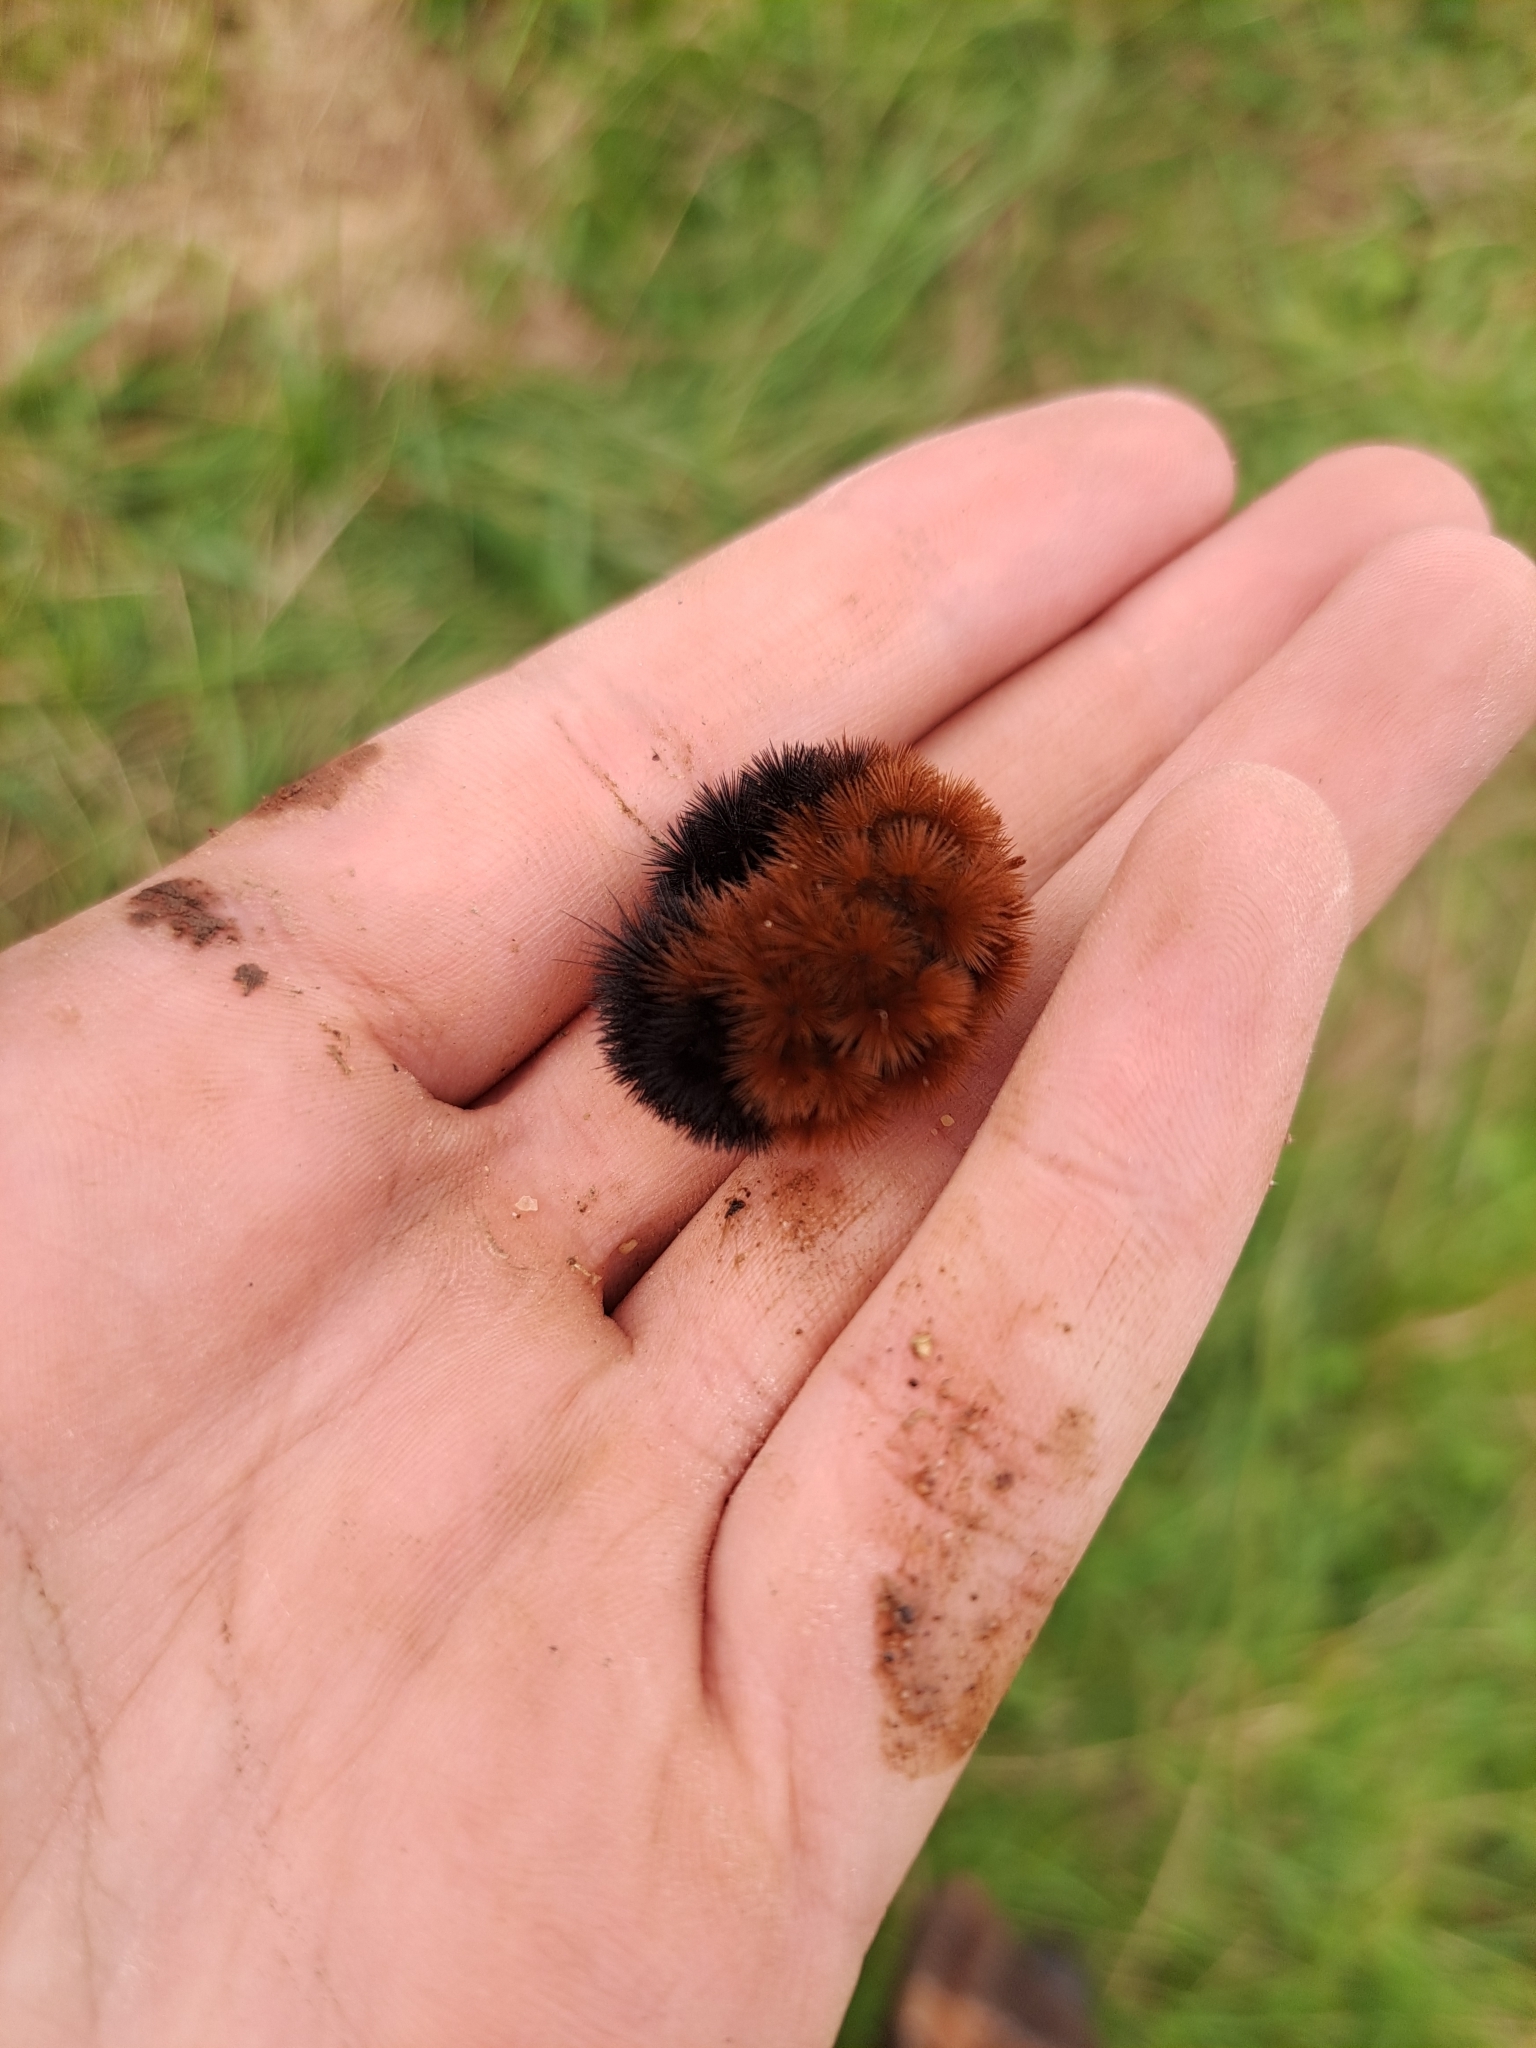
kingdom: Animalia
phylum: Arthropoda
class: Insecta
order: Lepidoptera
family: Erebidae
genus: Pyrrharctia
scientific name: Pyrrharctia isabella
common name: Isabella tiger moth
